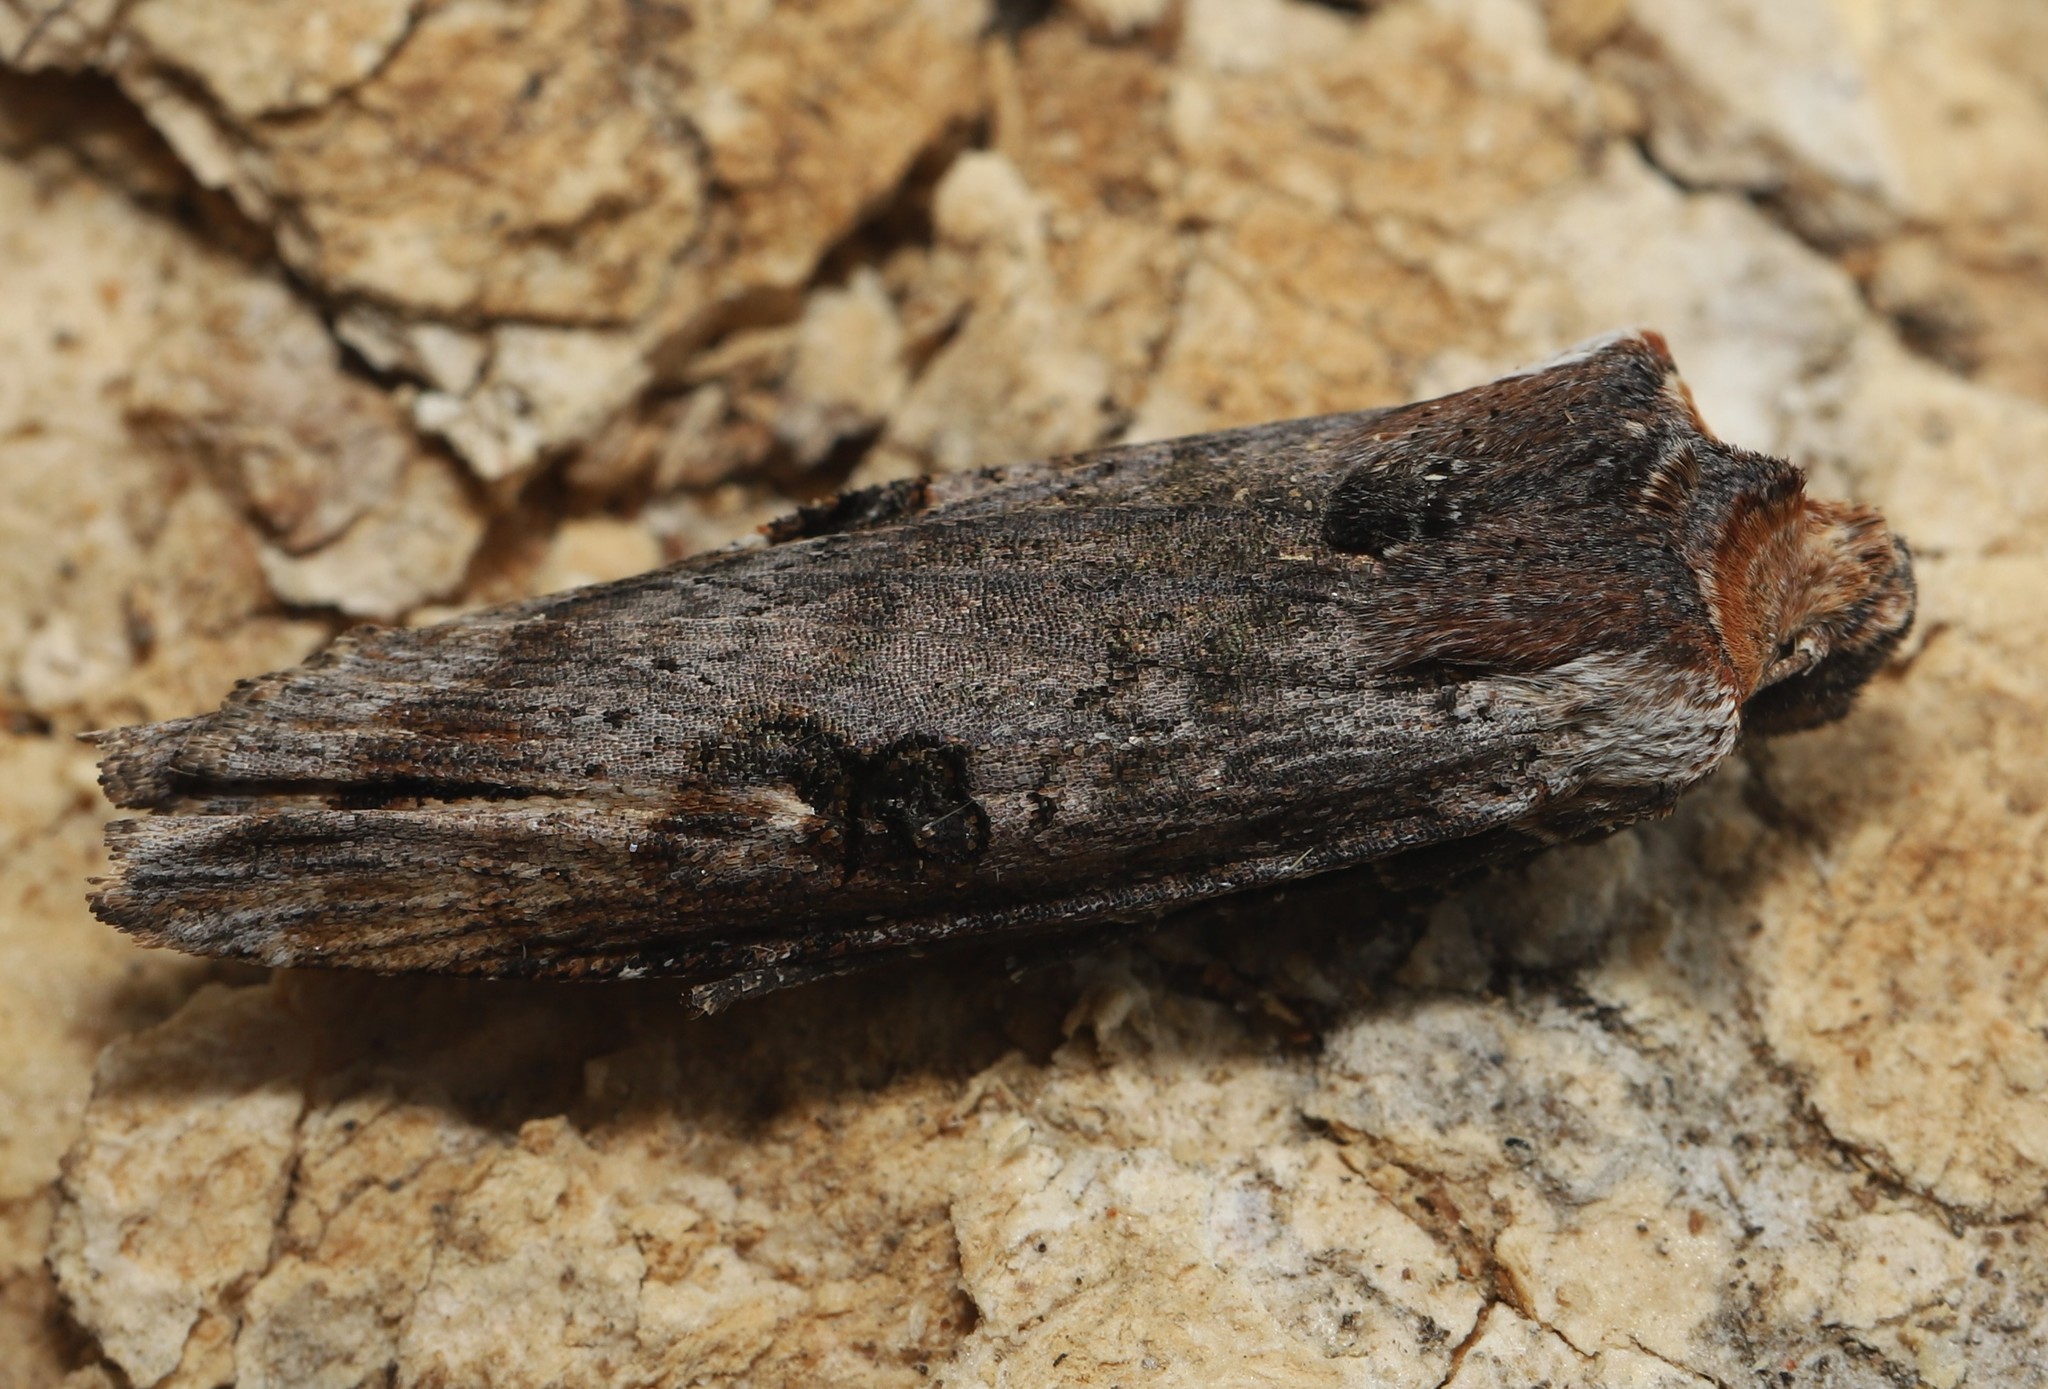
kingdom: Animalia
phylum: Arthropoda
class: Insecta
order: Lepidoptera
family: Noctuidae
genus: Xylena
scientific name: Xylena cineritia
